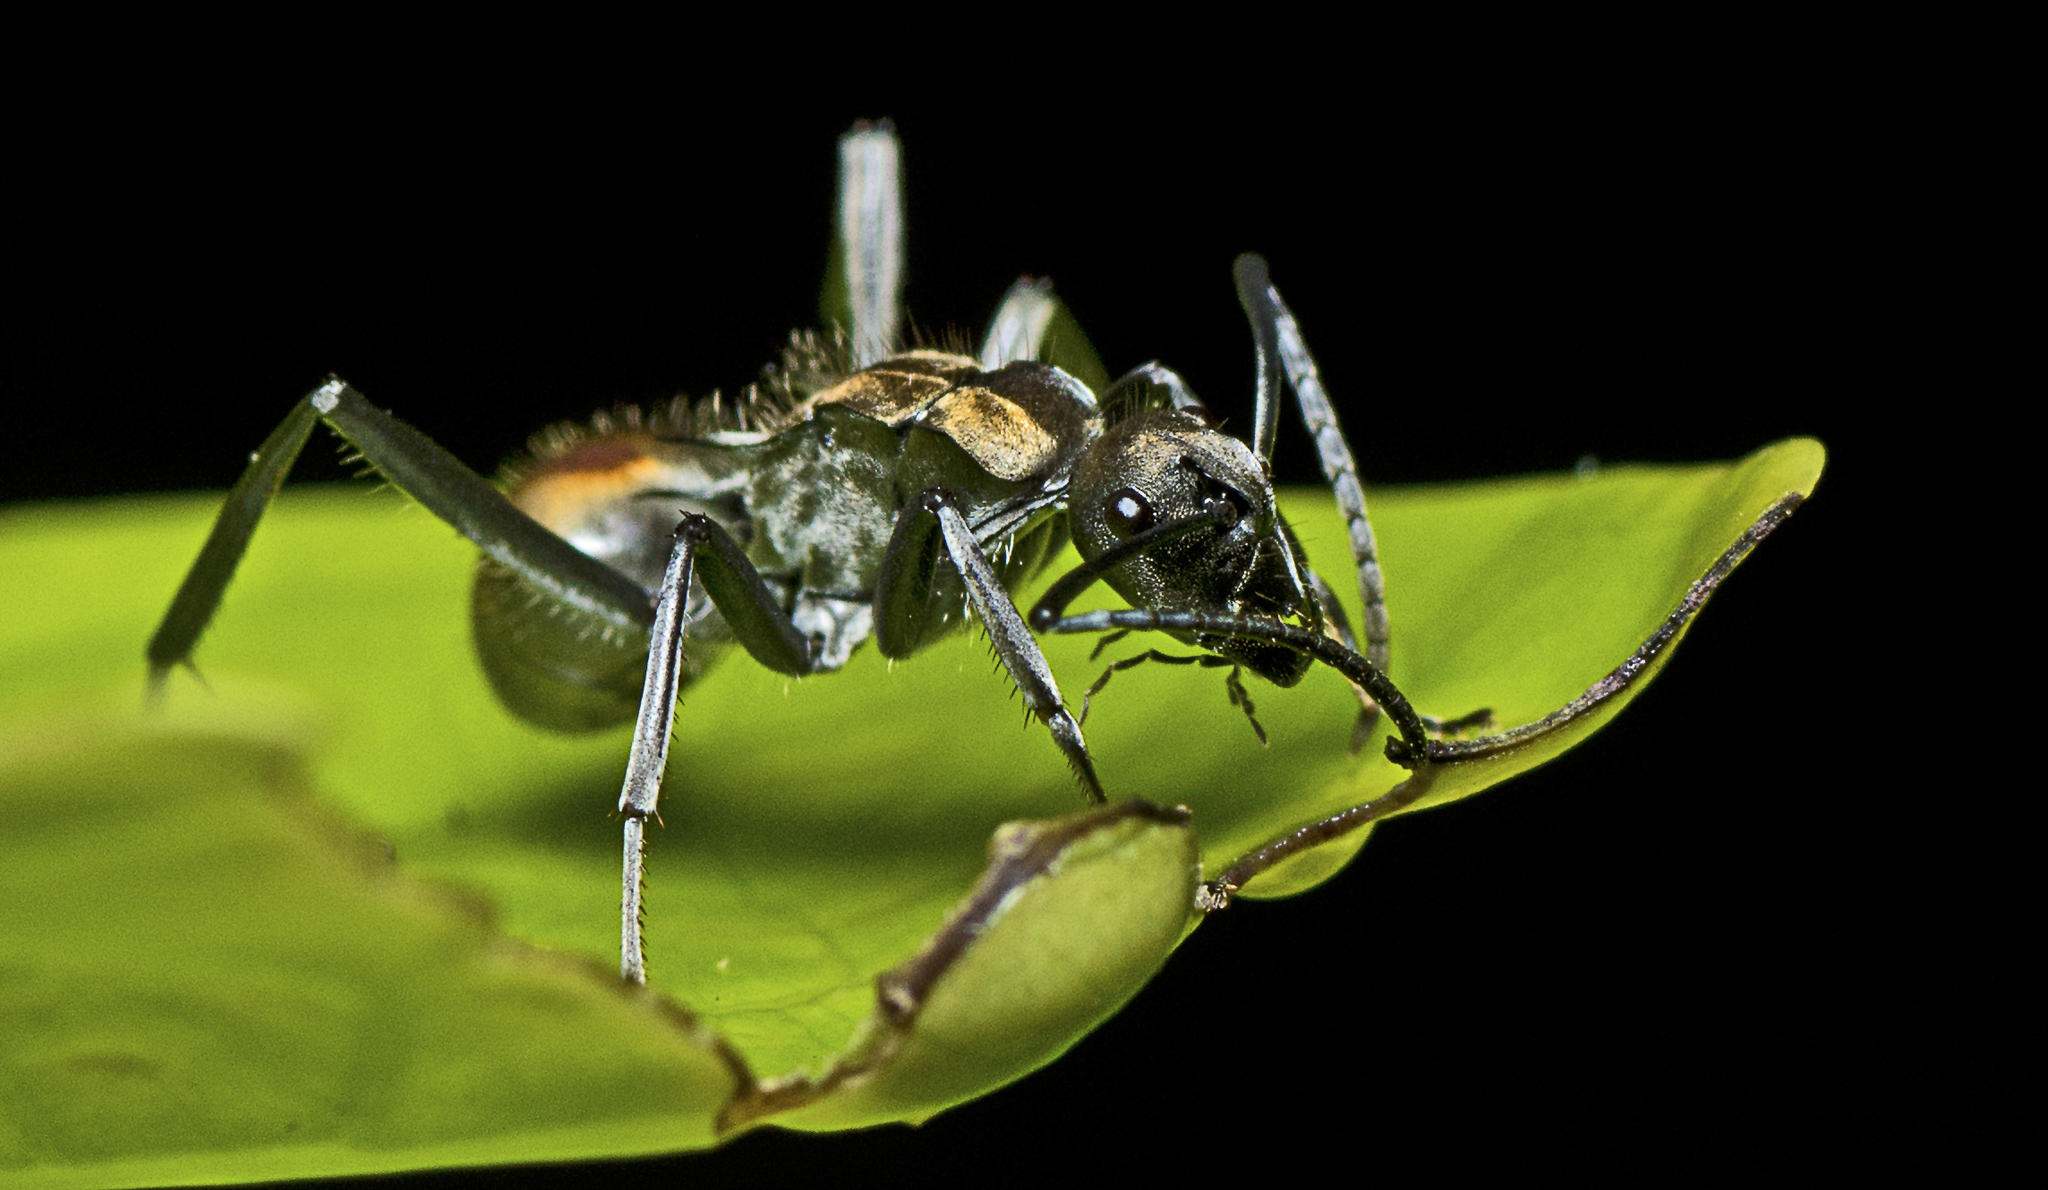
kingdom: Animalia
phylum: Arthropoda
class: Insecta
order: Hymenoptera
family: Formicidae
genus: Polyrhachis
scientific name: Polyrhachis
